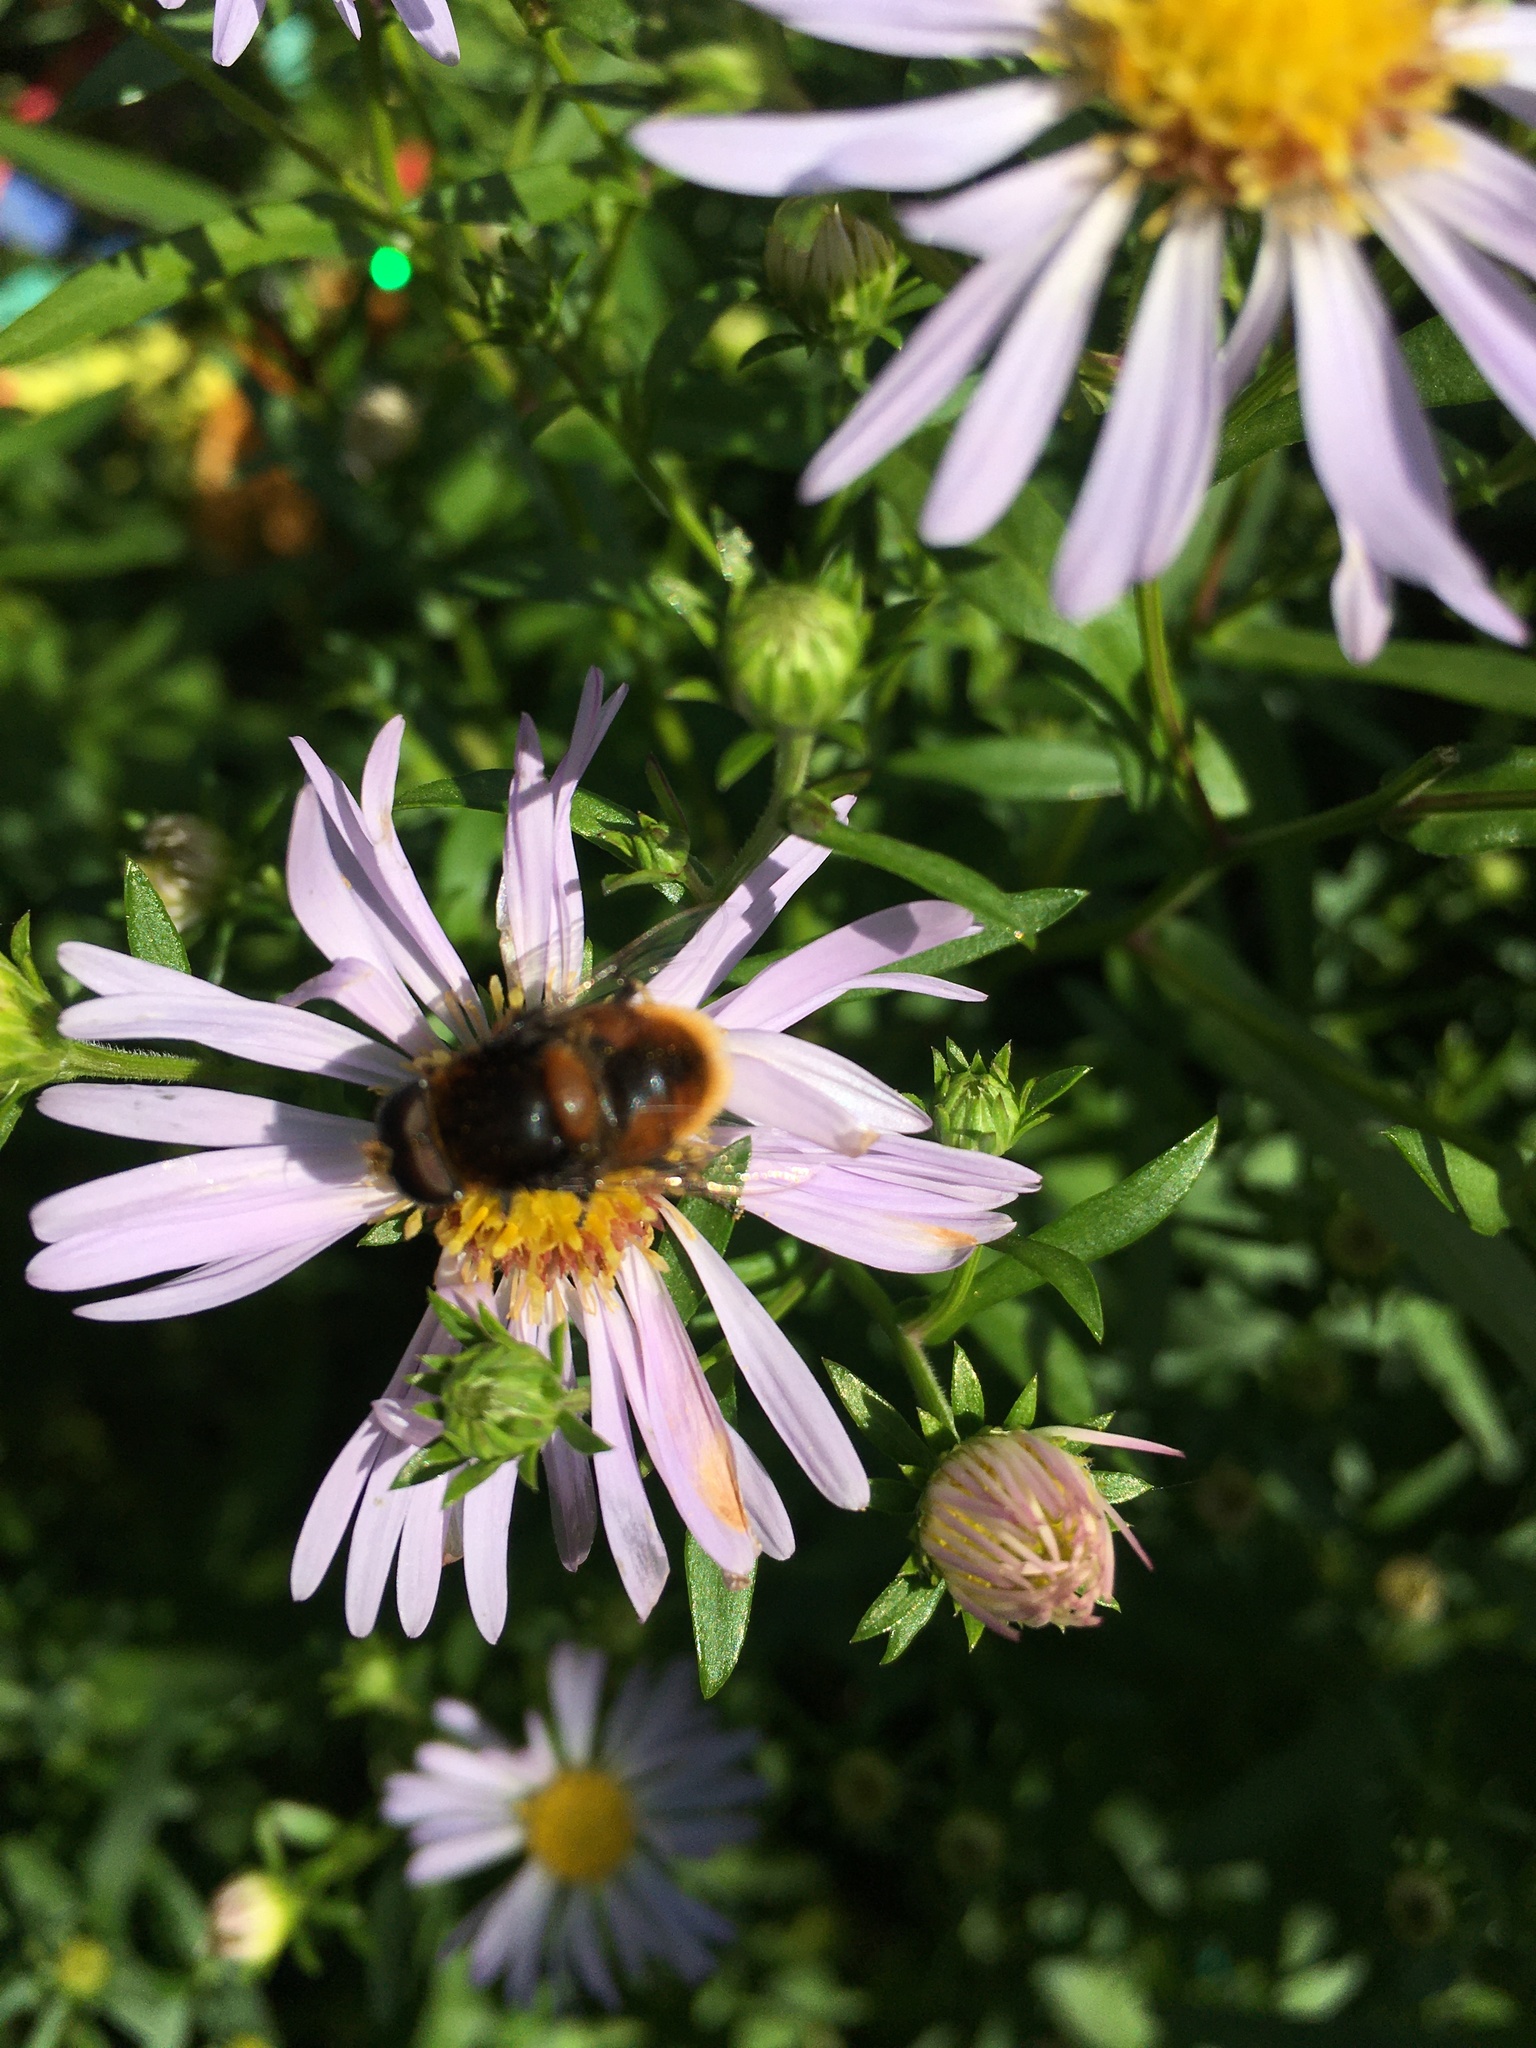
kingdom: Animalia
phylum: Arthropoda
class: Insecta
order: Diptera
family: Syrphidae
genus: Eristalis
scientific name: Eristalis intricaria
